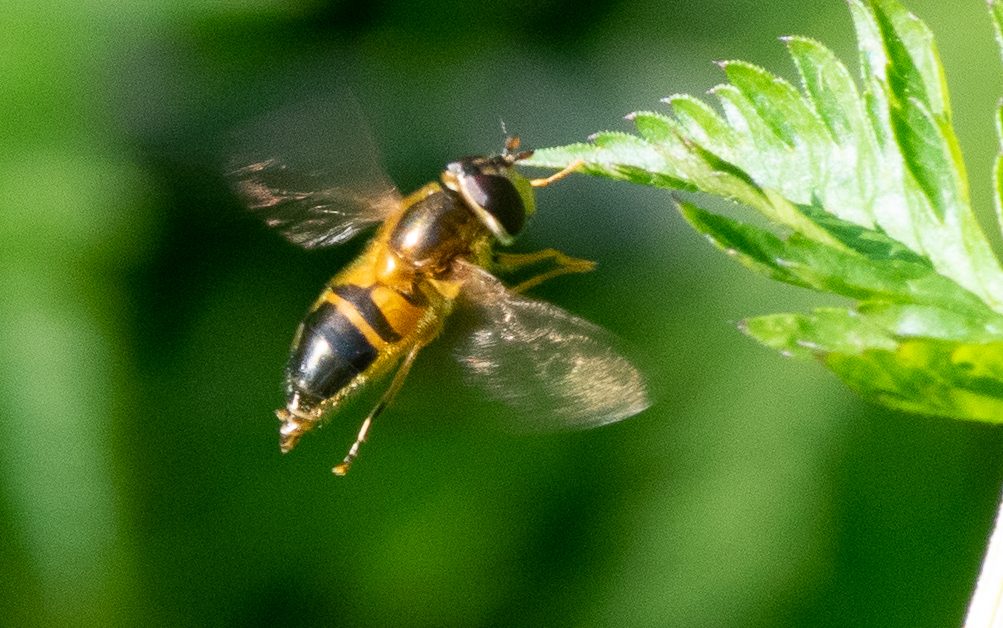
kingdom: Animalia
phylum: Arthropoda
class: Insecta
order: Diptera
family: Syrphidae
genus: Epistrophe
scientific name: Epistrophe eligans
